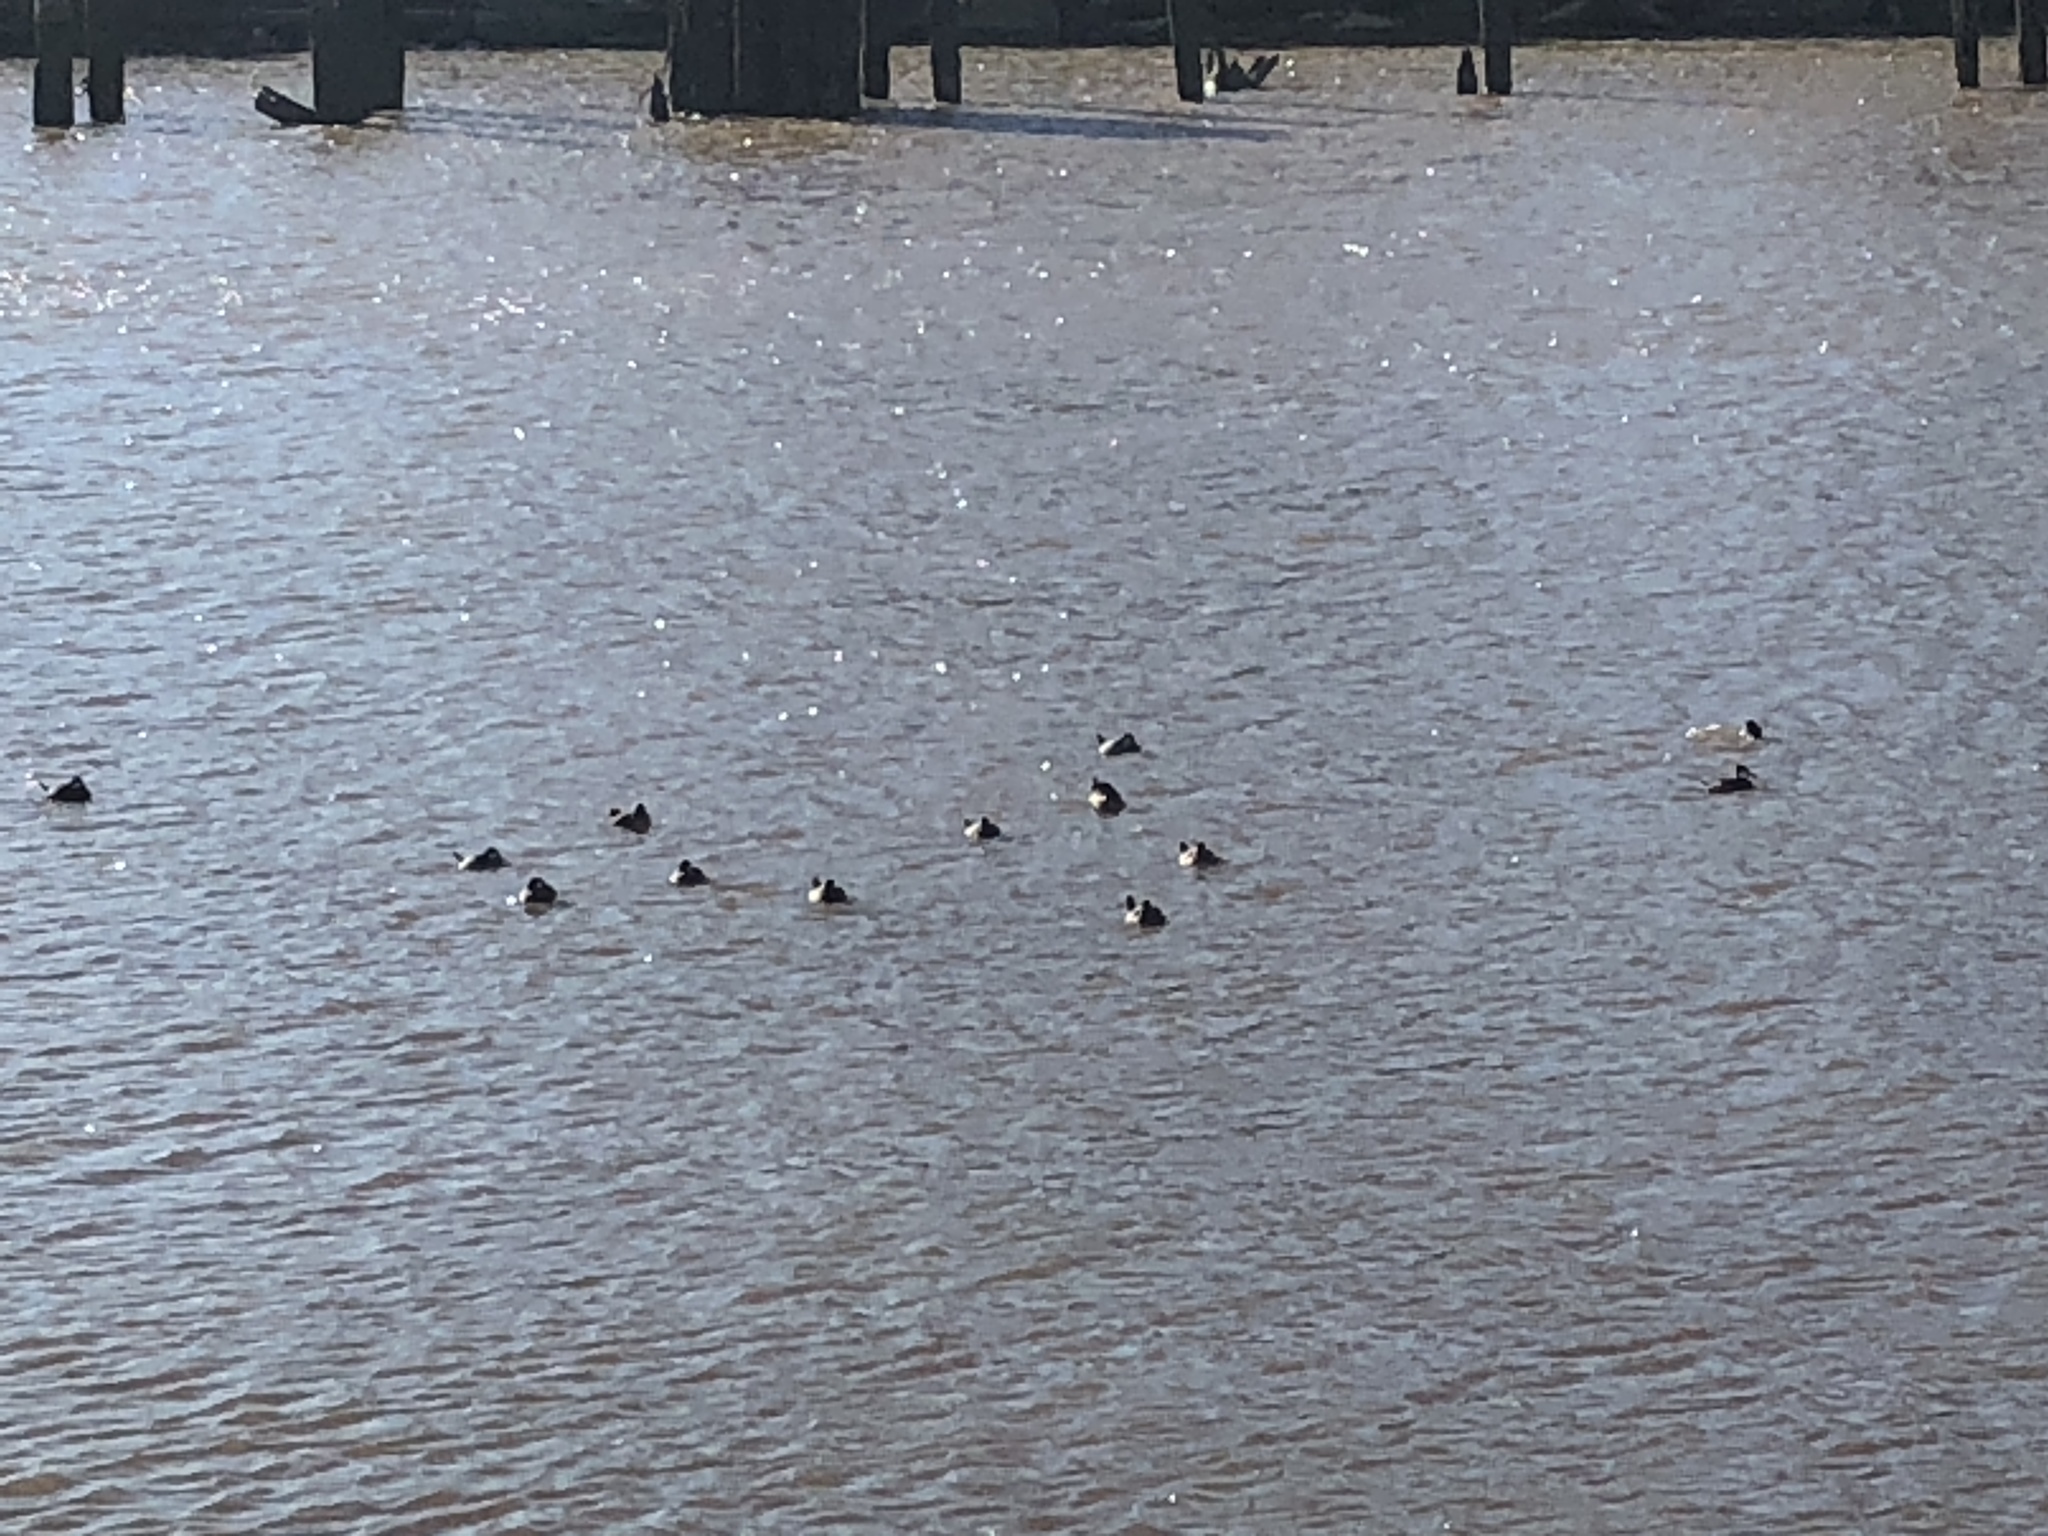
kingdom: Animalia
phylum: Chordata
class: Aves
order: Anseriformes
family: Anatidae
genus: Oxyura
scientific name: Oxyura jamaicensis
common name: Ruddy duck
